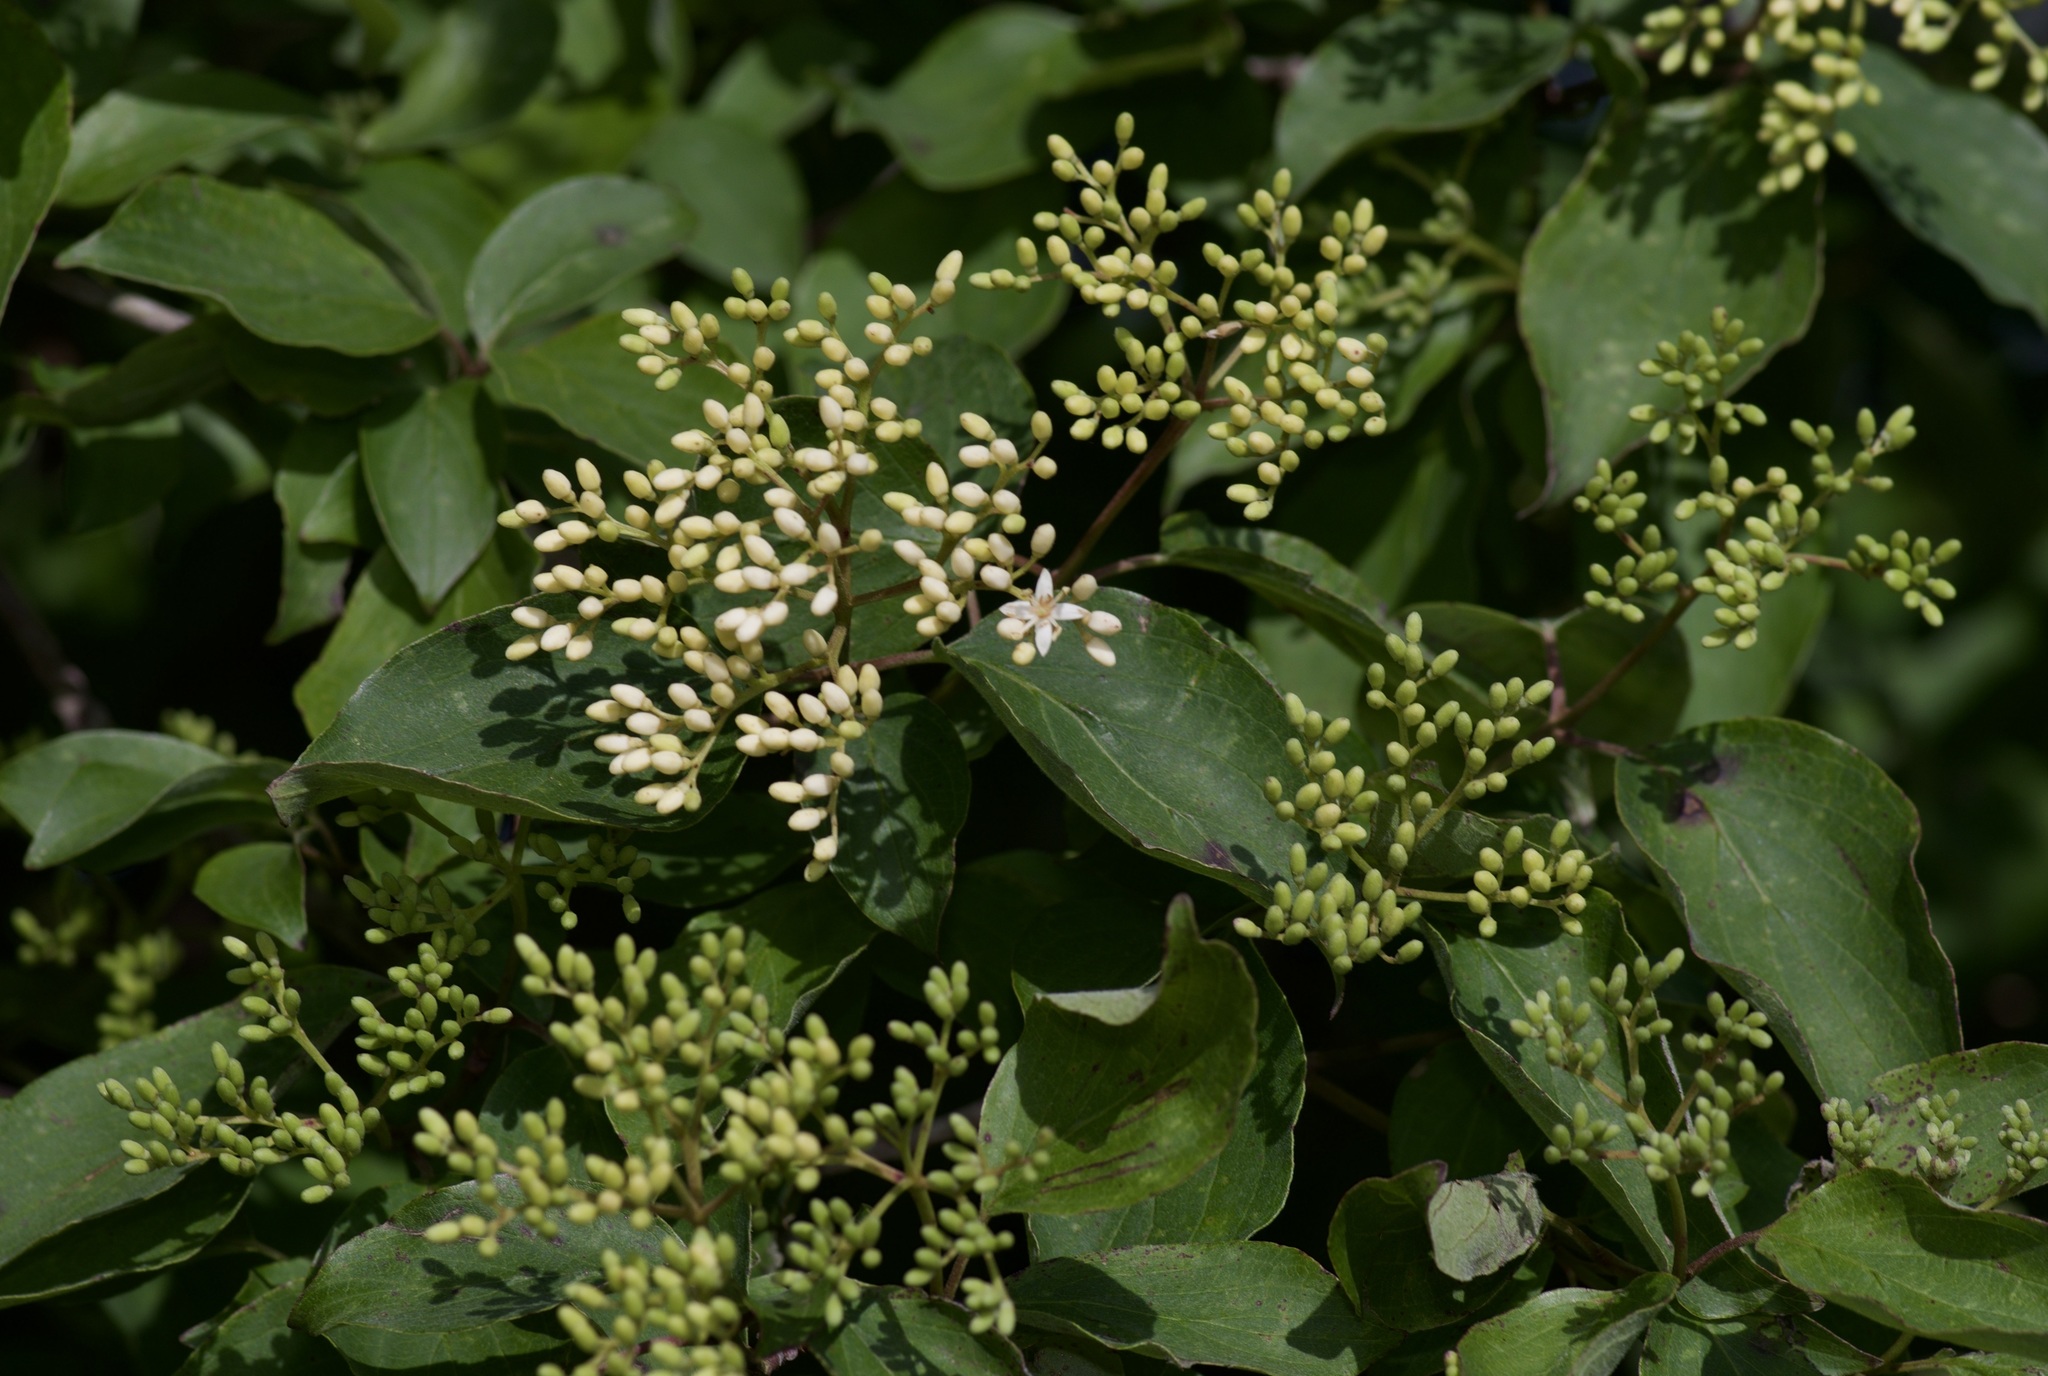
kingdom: Plantae
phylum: Tracheophyta
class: Magnoliopsida
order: Cornales
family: Cornaceae
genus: Cornus
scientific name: Cornus drummondii
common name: Rough-leaf dogwood
